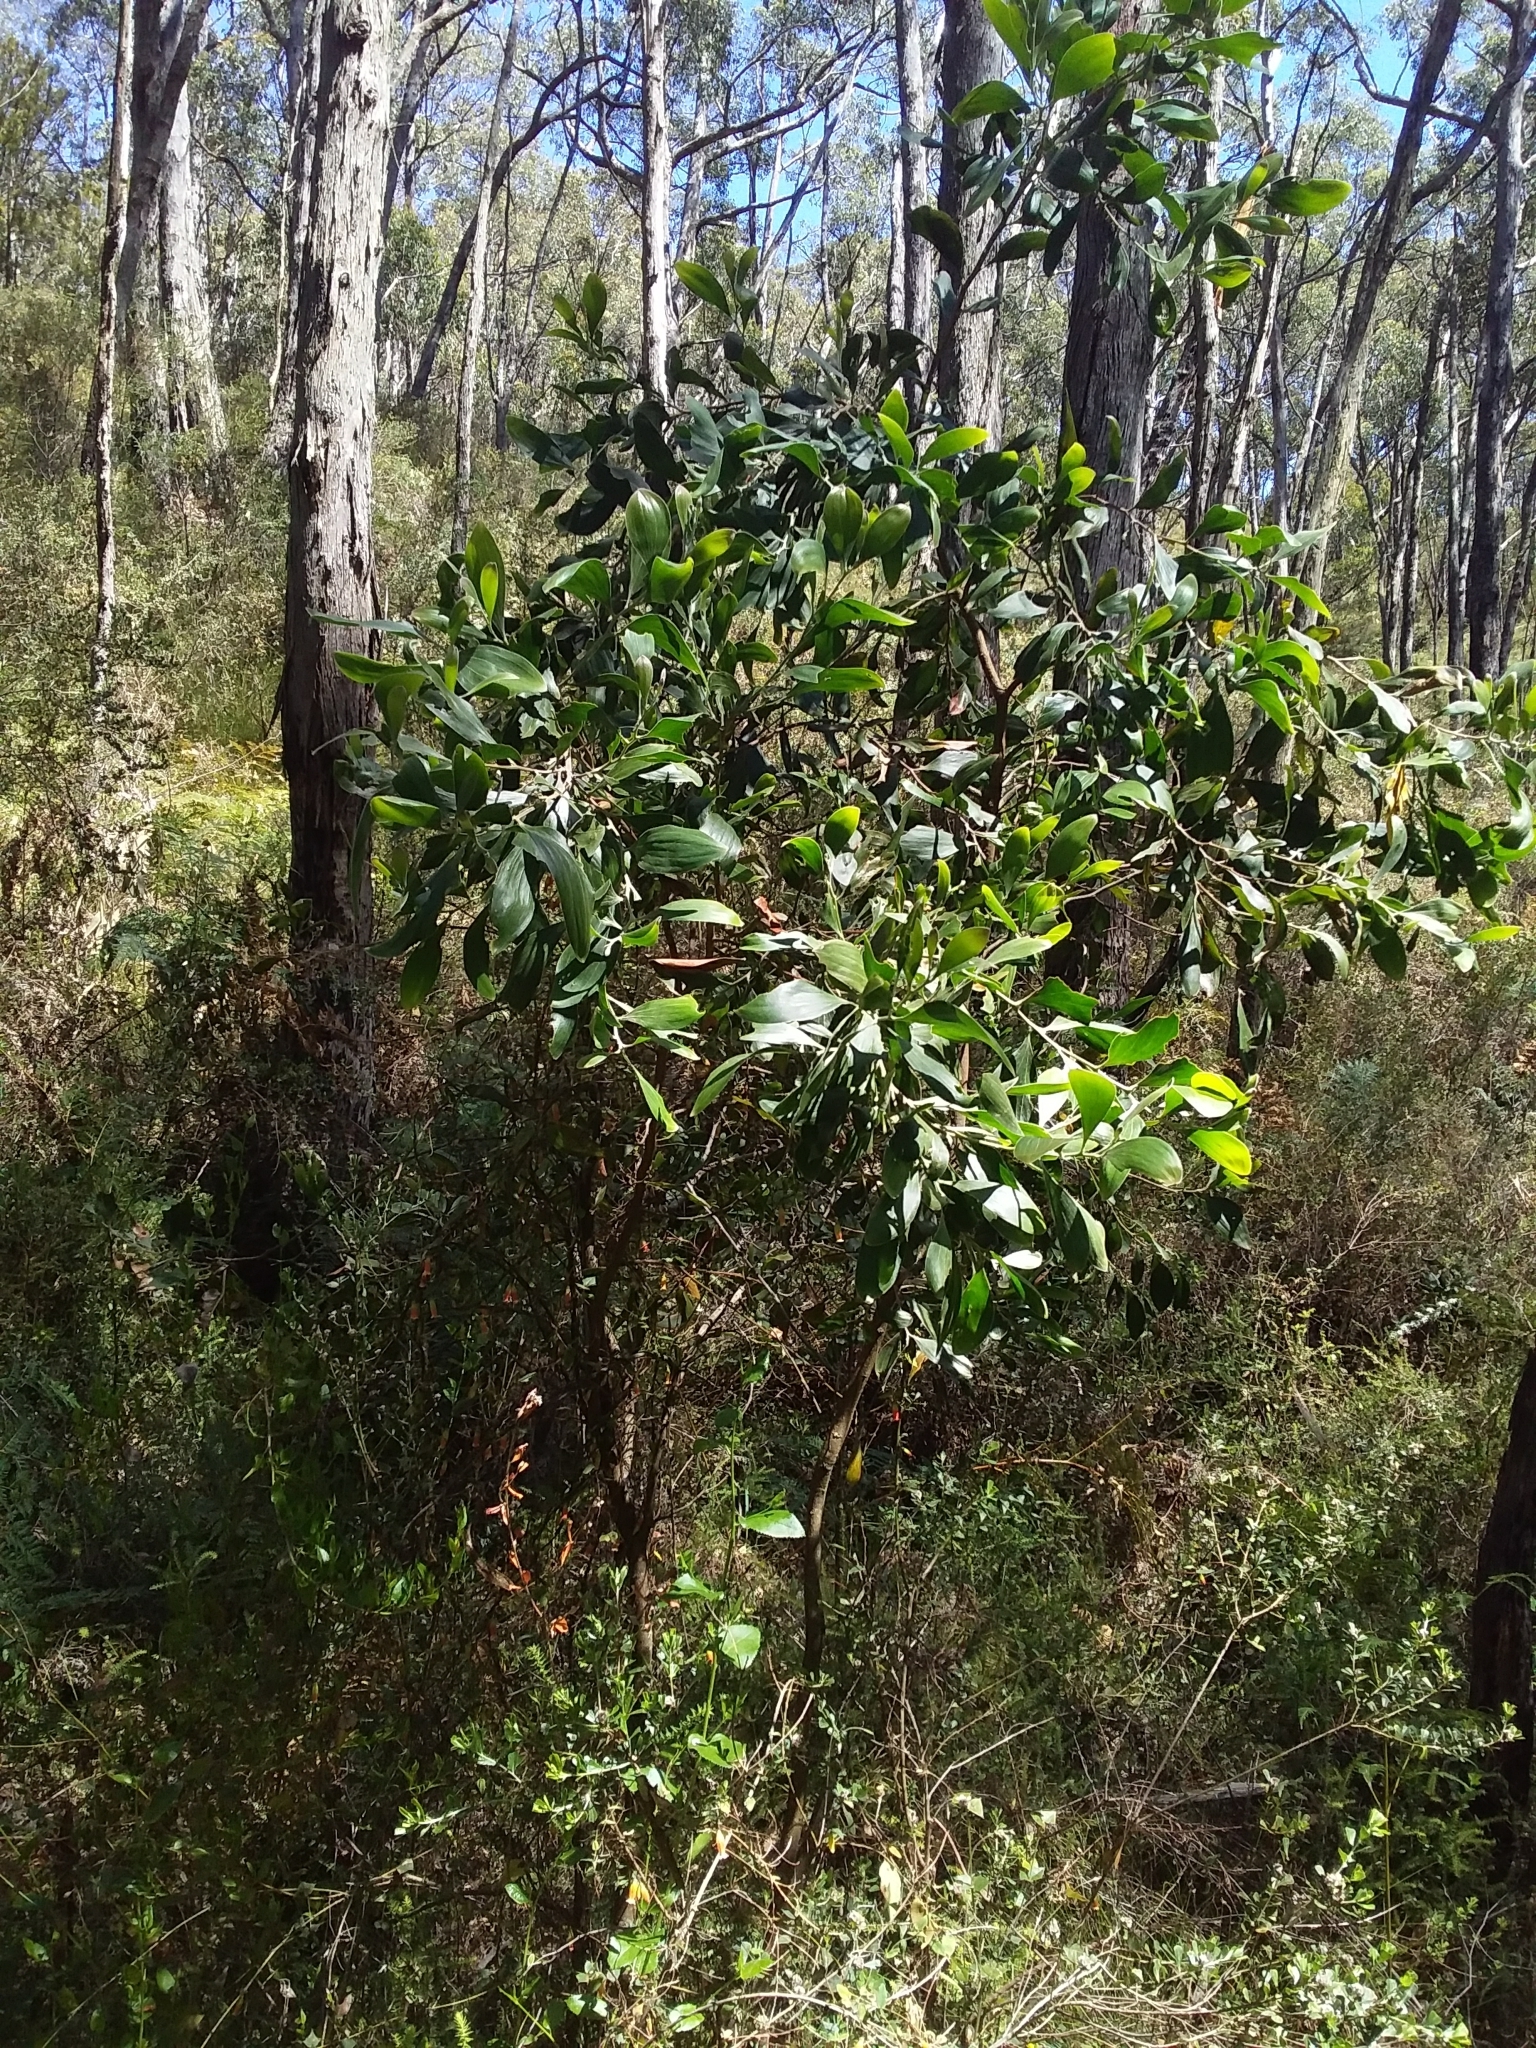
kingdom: Plantae
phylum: Tracheophyta
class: Magnoliopsida
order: Fabales
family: Fabaceae
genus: Acacia
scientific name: Acacia melanoxylon
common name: Blackwood
